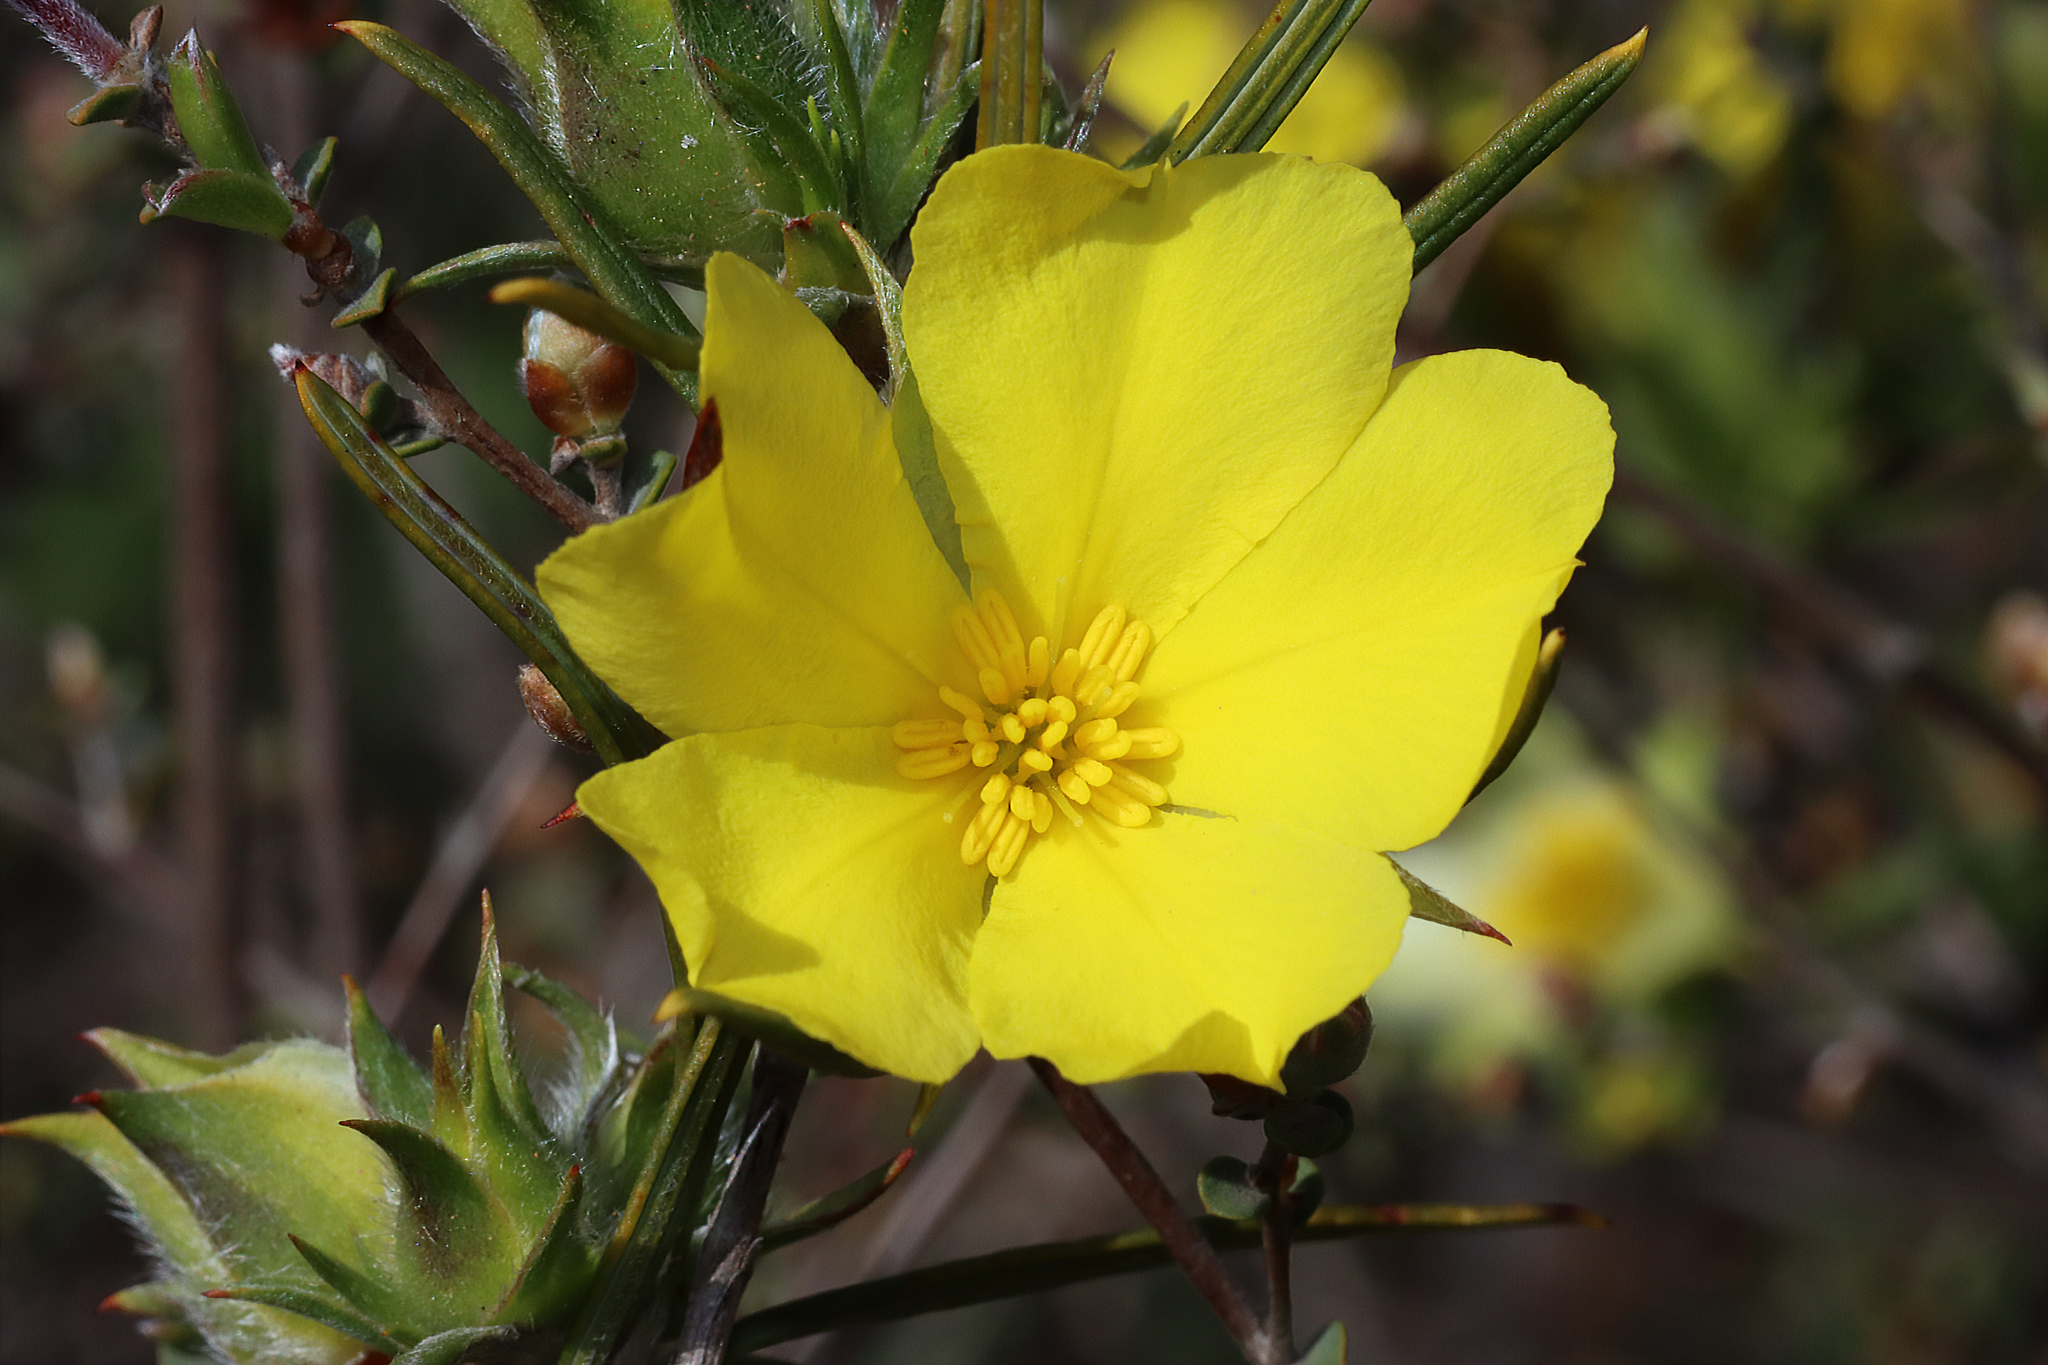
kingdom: Plantae
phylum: Tracheophyta
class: Magnoliopsida
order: Dilleniales
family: Dilleniaceae
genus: Hibbertia
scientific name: Hibbertia
